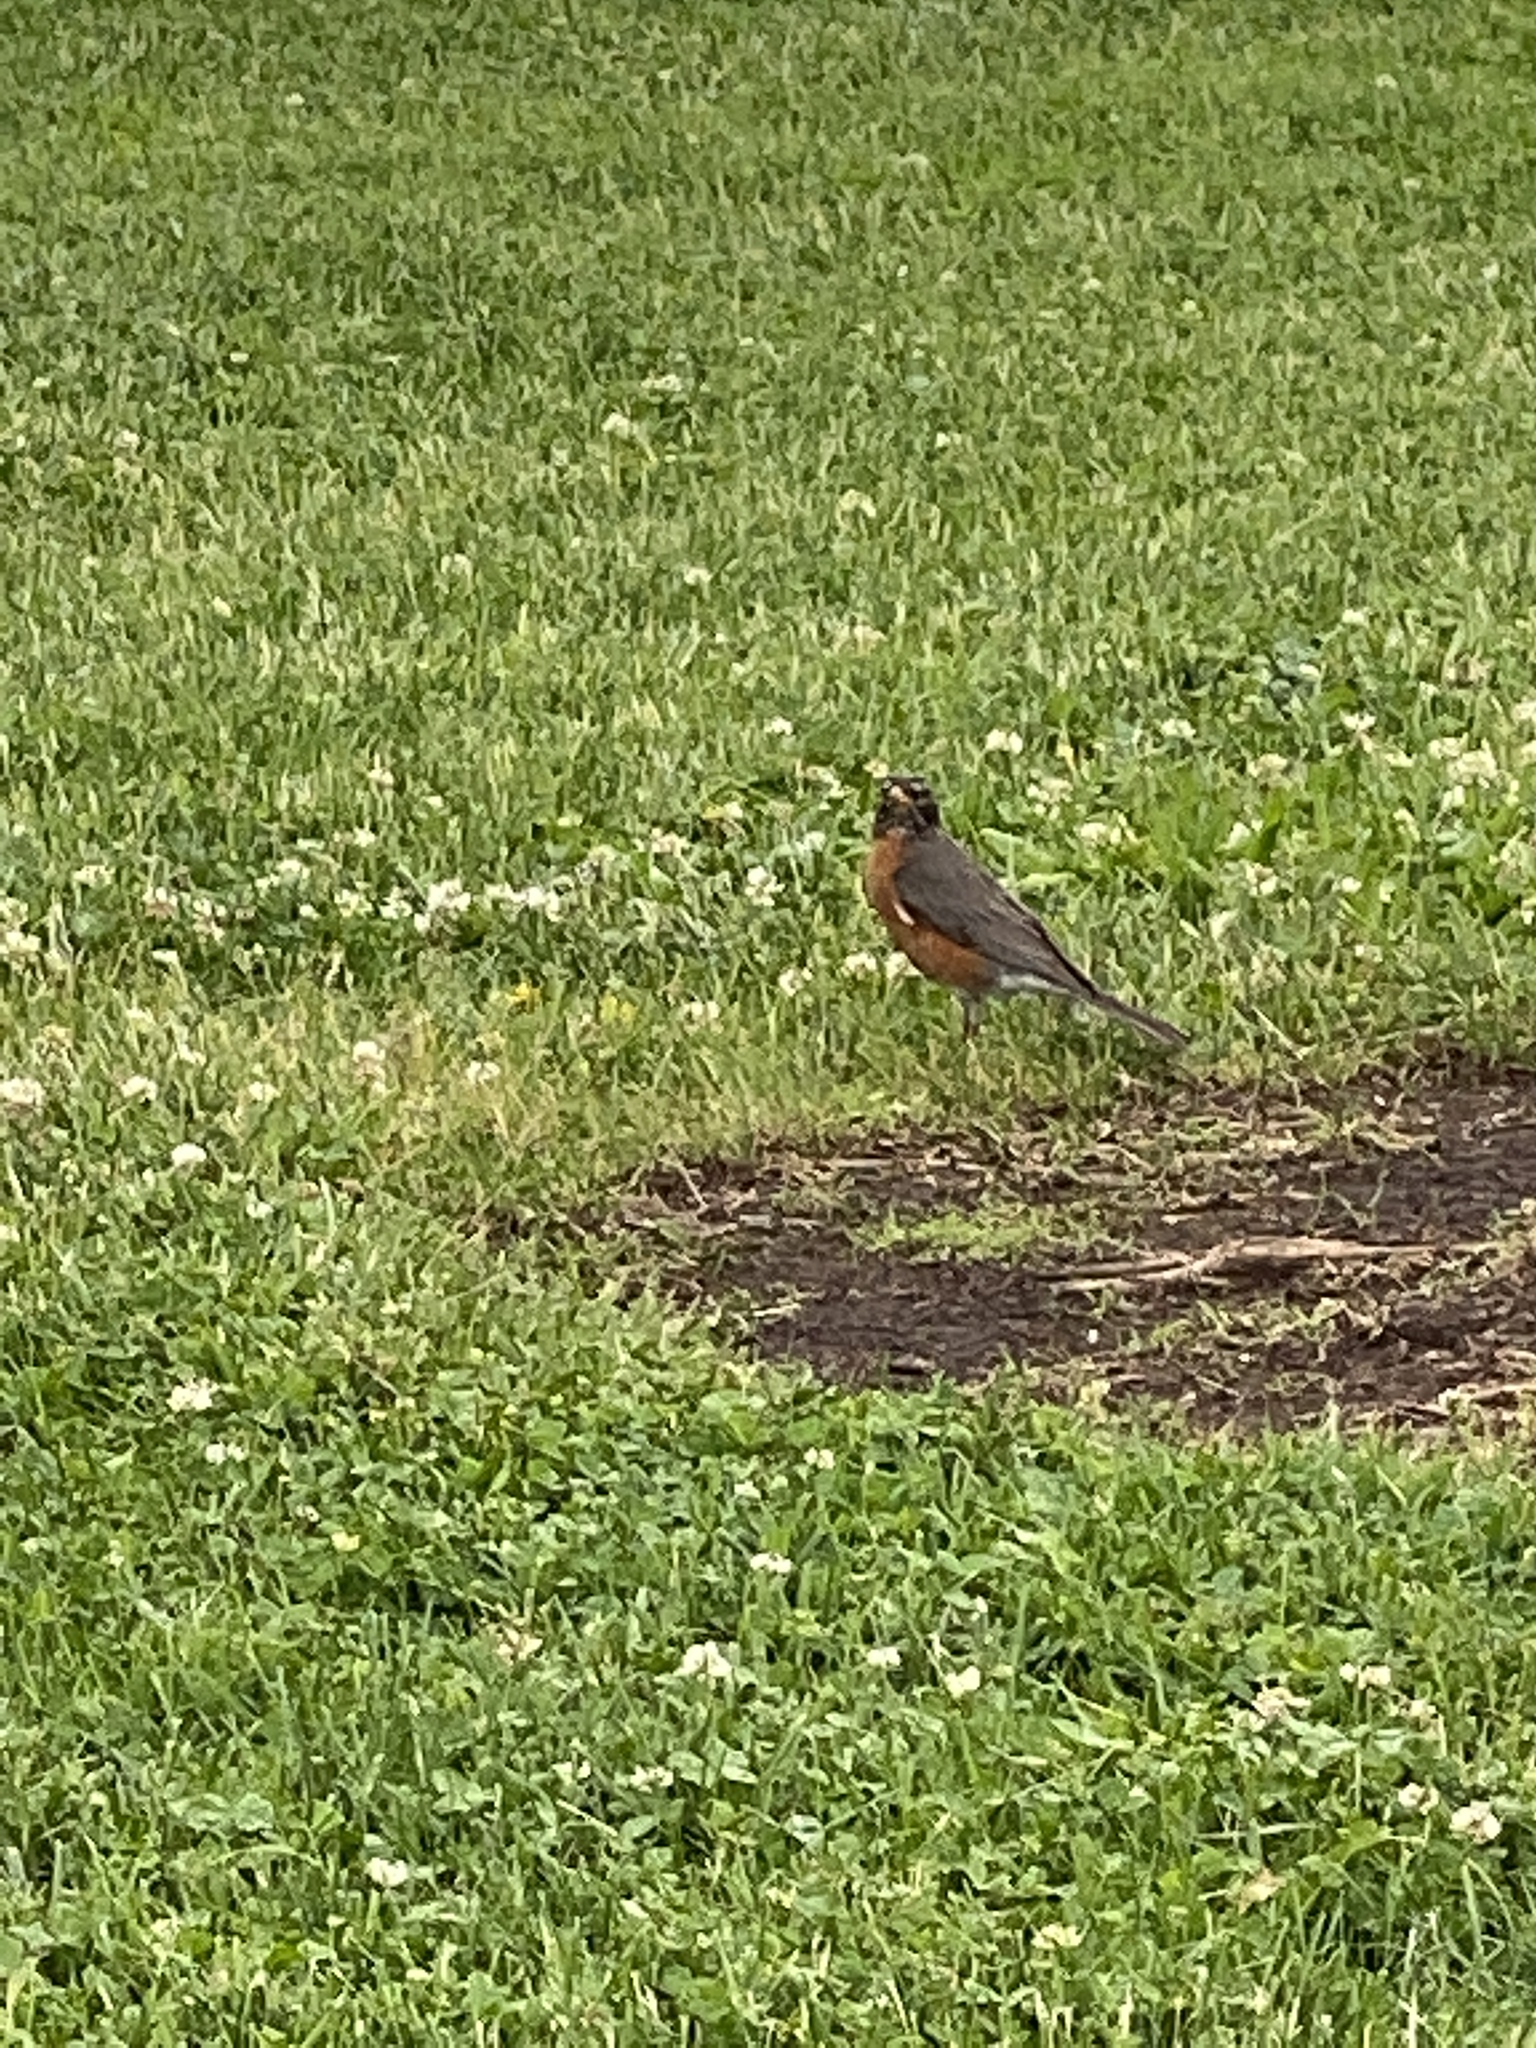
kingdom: Animalia
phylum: Chordata
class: Aves
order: Passeriformes
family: Turdidae
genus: Turdus
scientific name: Turdus migratorius
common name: American robin
